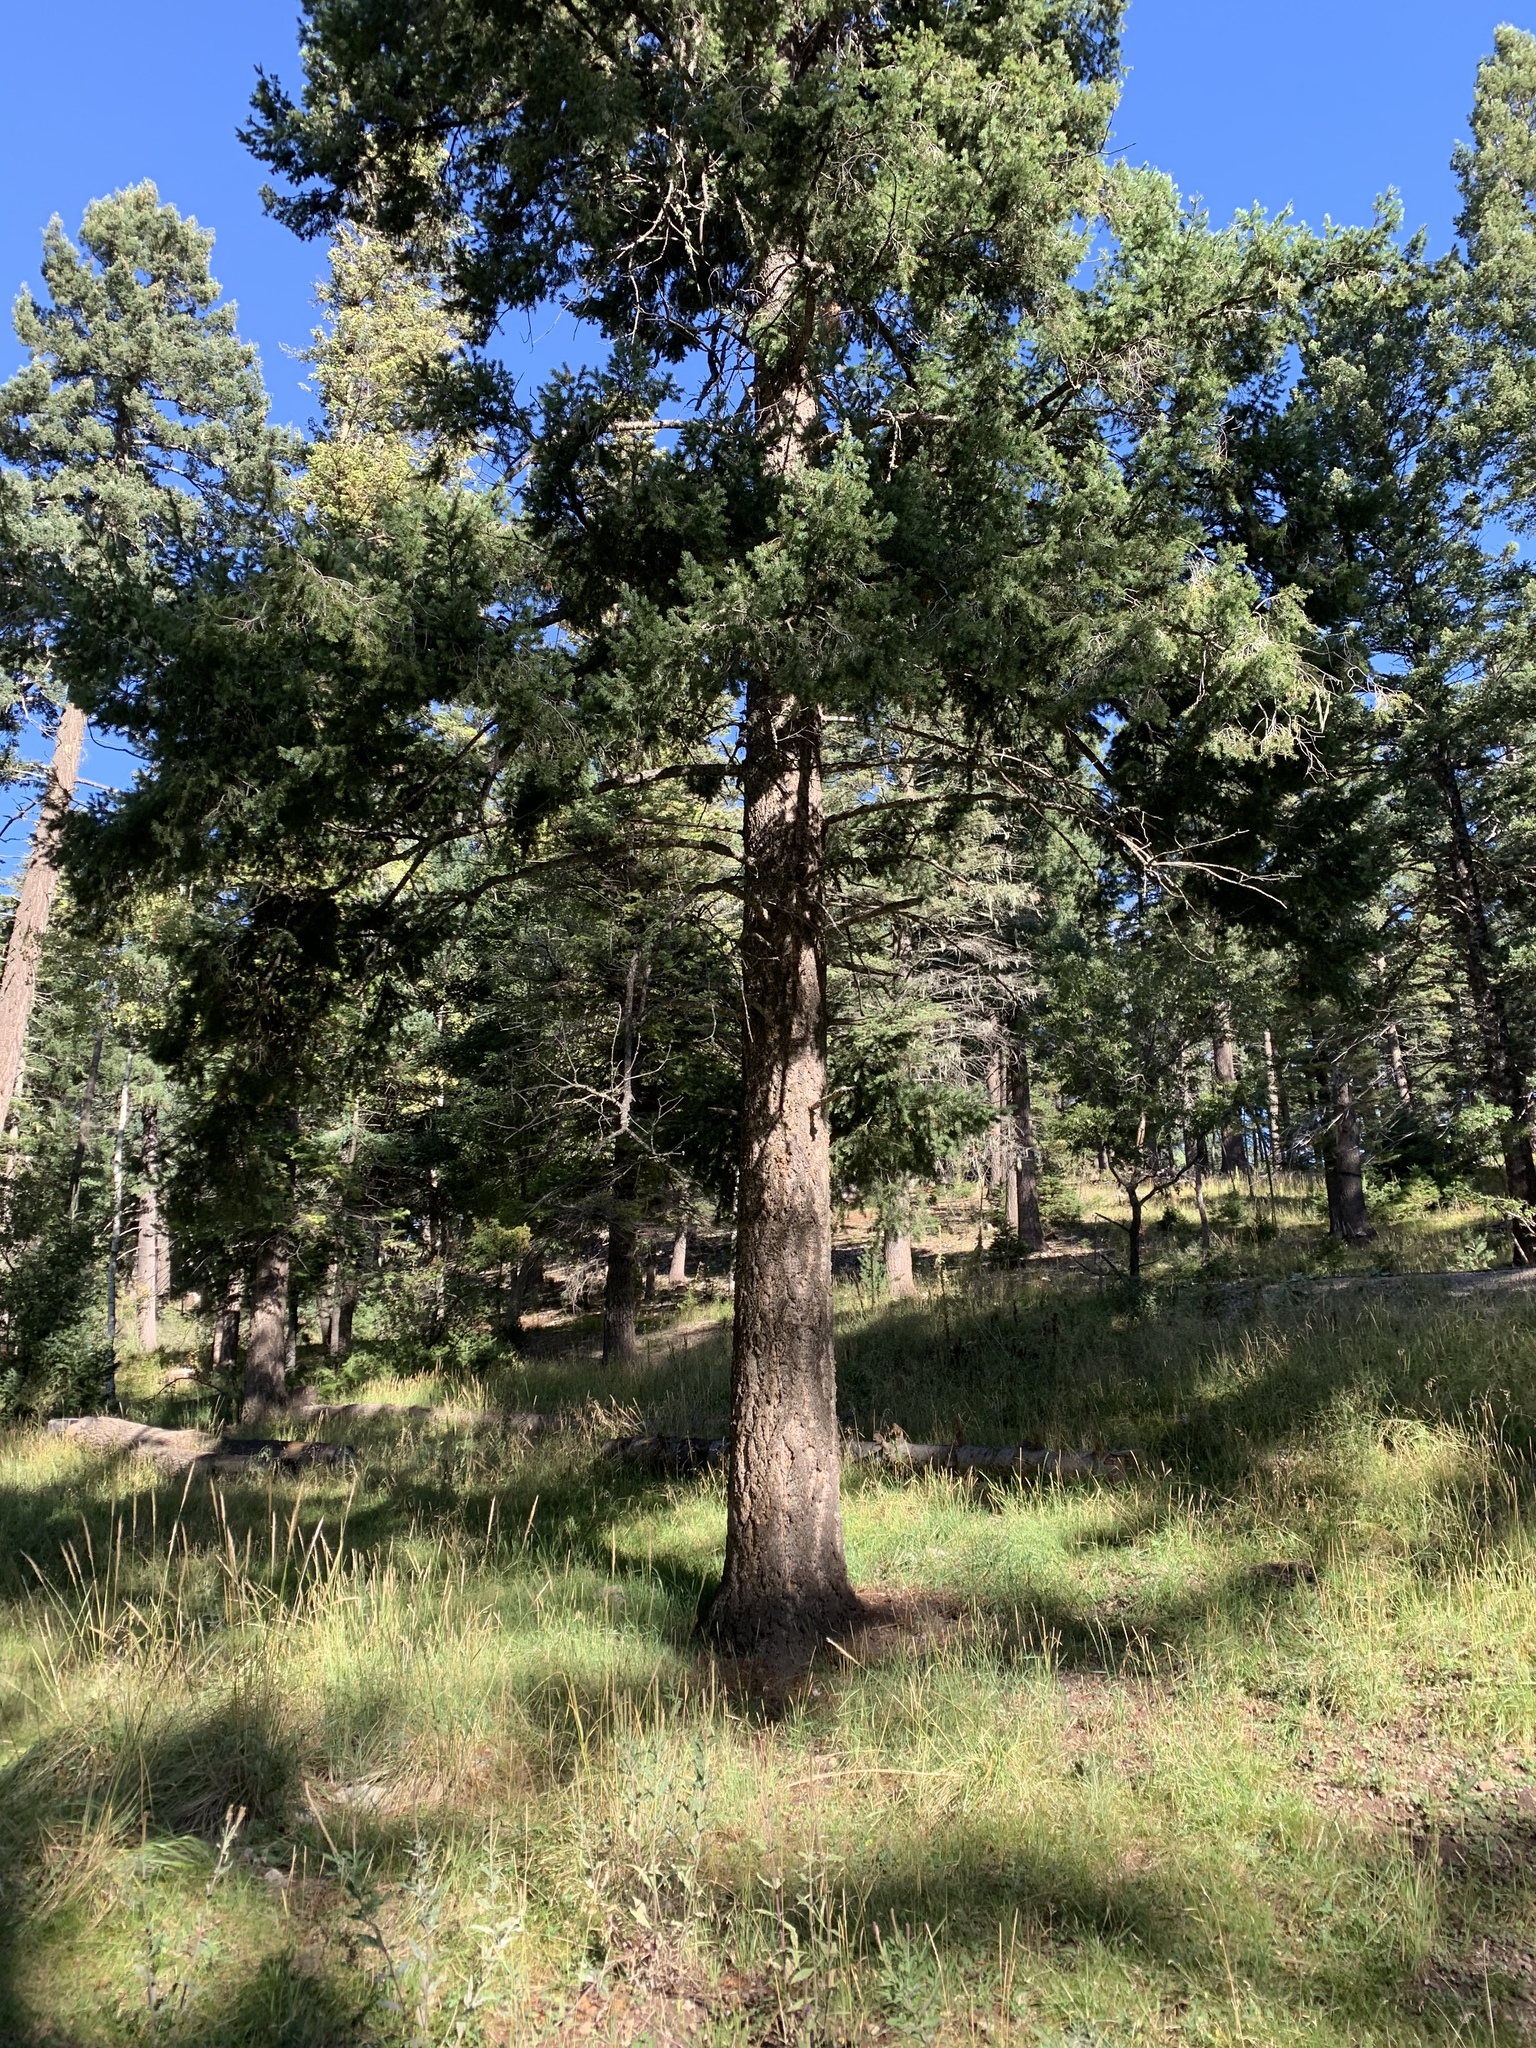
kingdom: Plantae
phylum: Tracheophyta
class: Pinopsida
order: Pinales
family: Pinaceae
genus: Pseudotsuga
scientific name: Pseudotsuga menziesii
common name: Douglas fir
